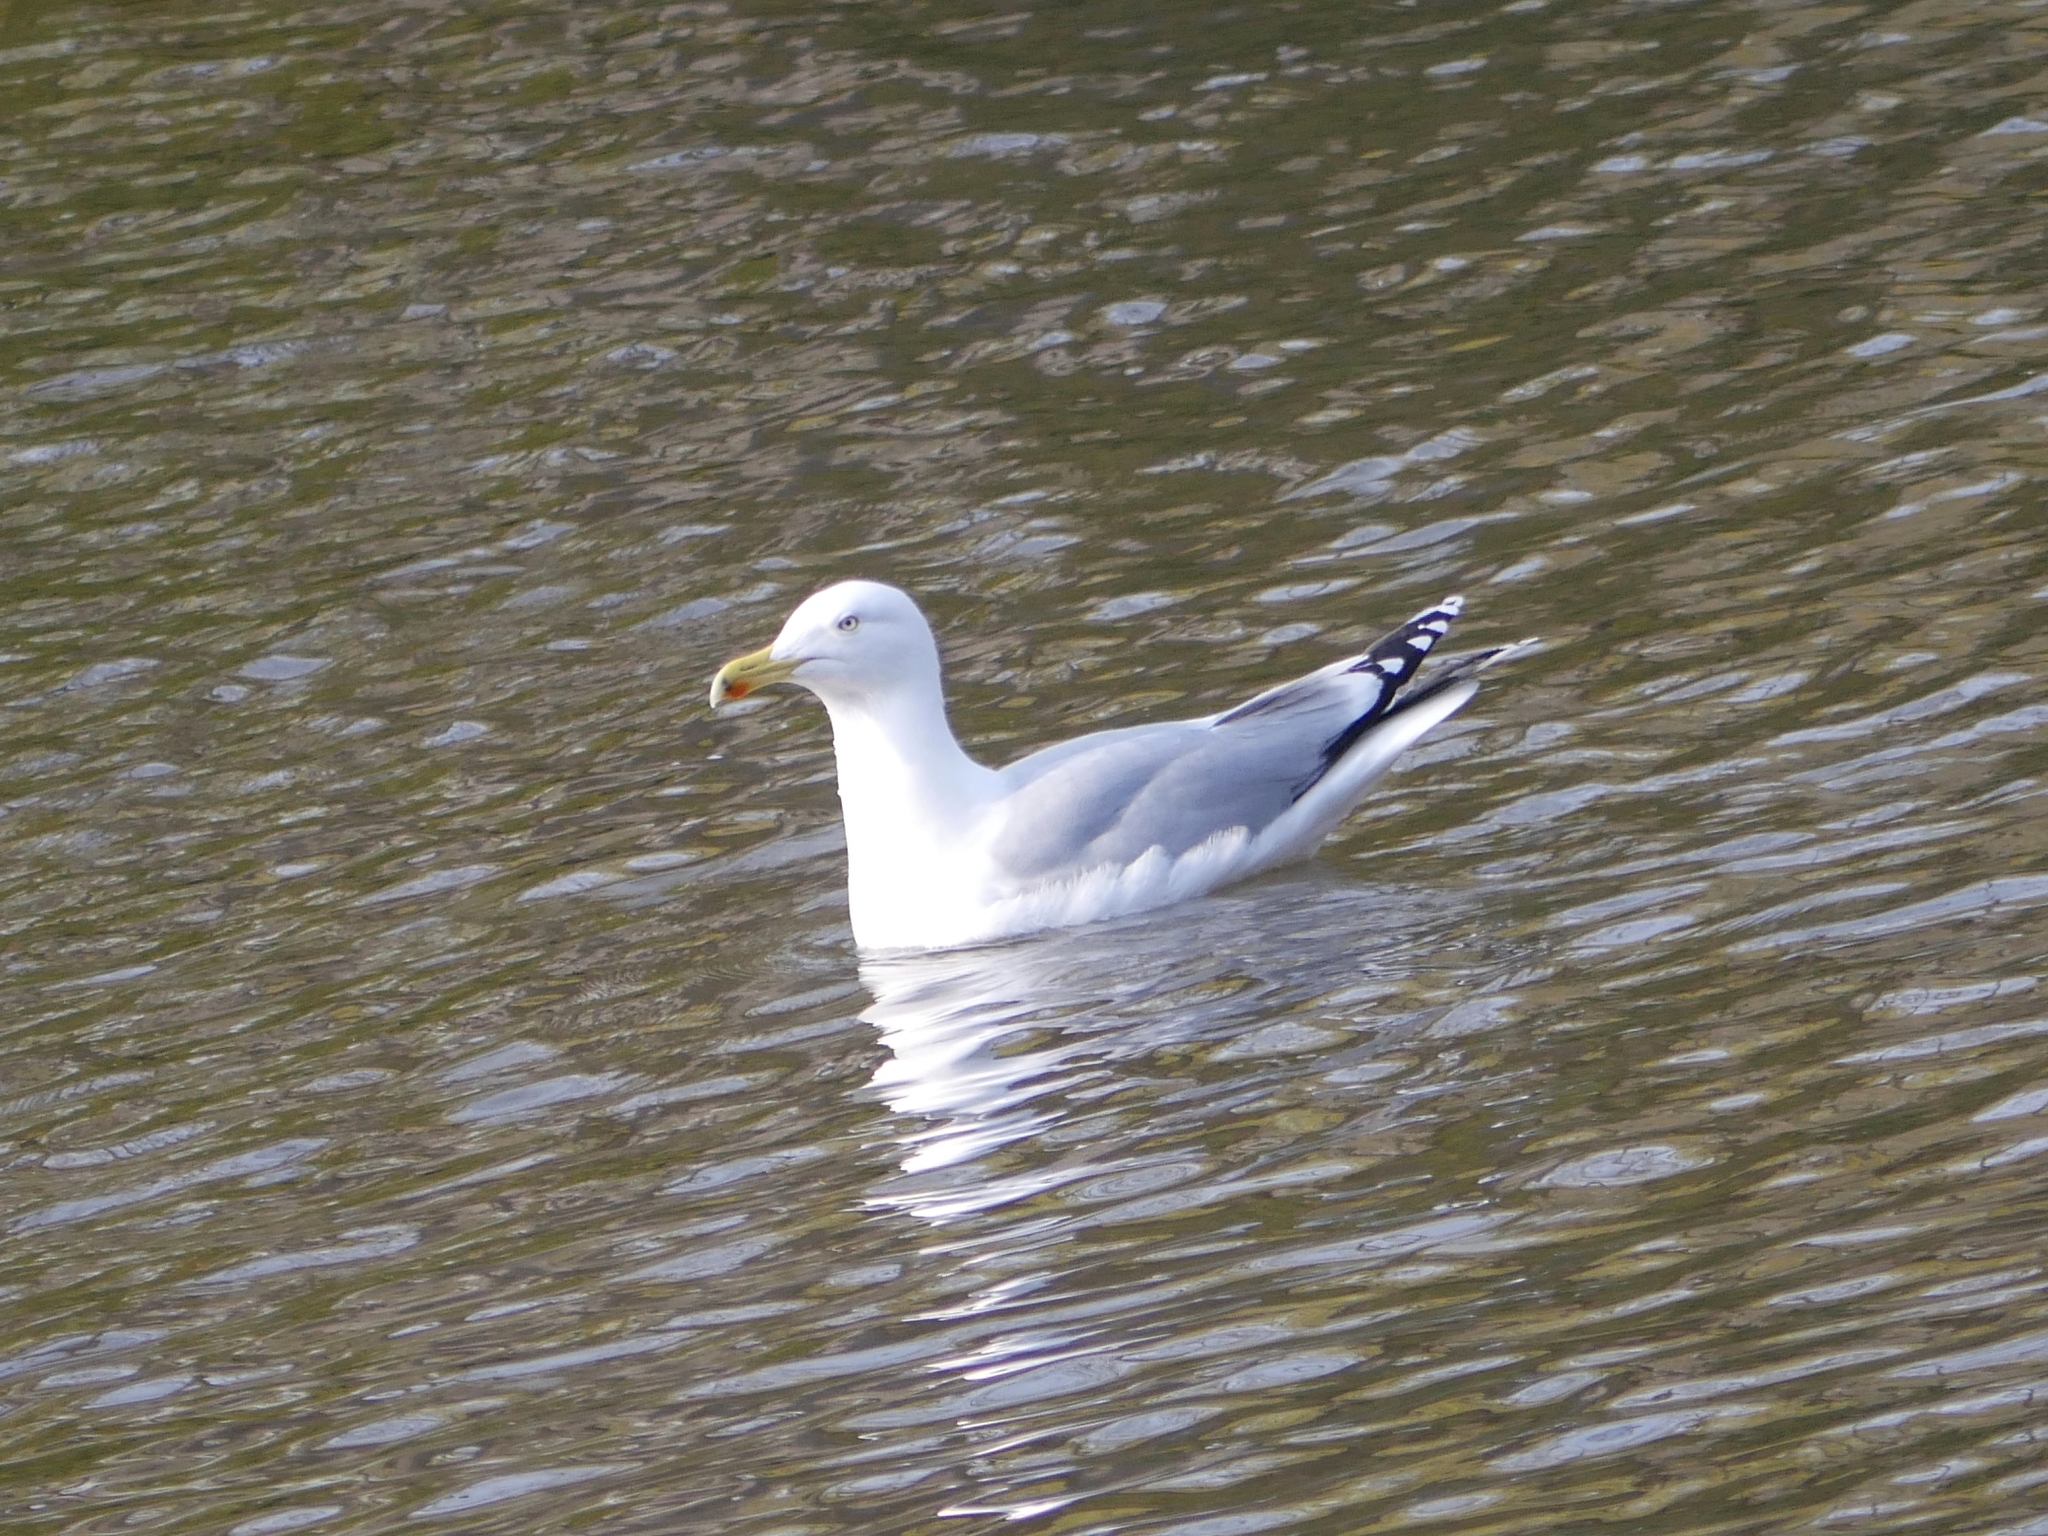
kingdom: Animalia
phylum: Chordata
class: Aves
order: Charadriiformes
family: Laridae
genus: Larus
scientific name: Larus argentatus
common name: Herring gull
